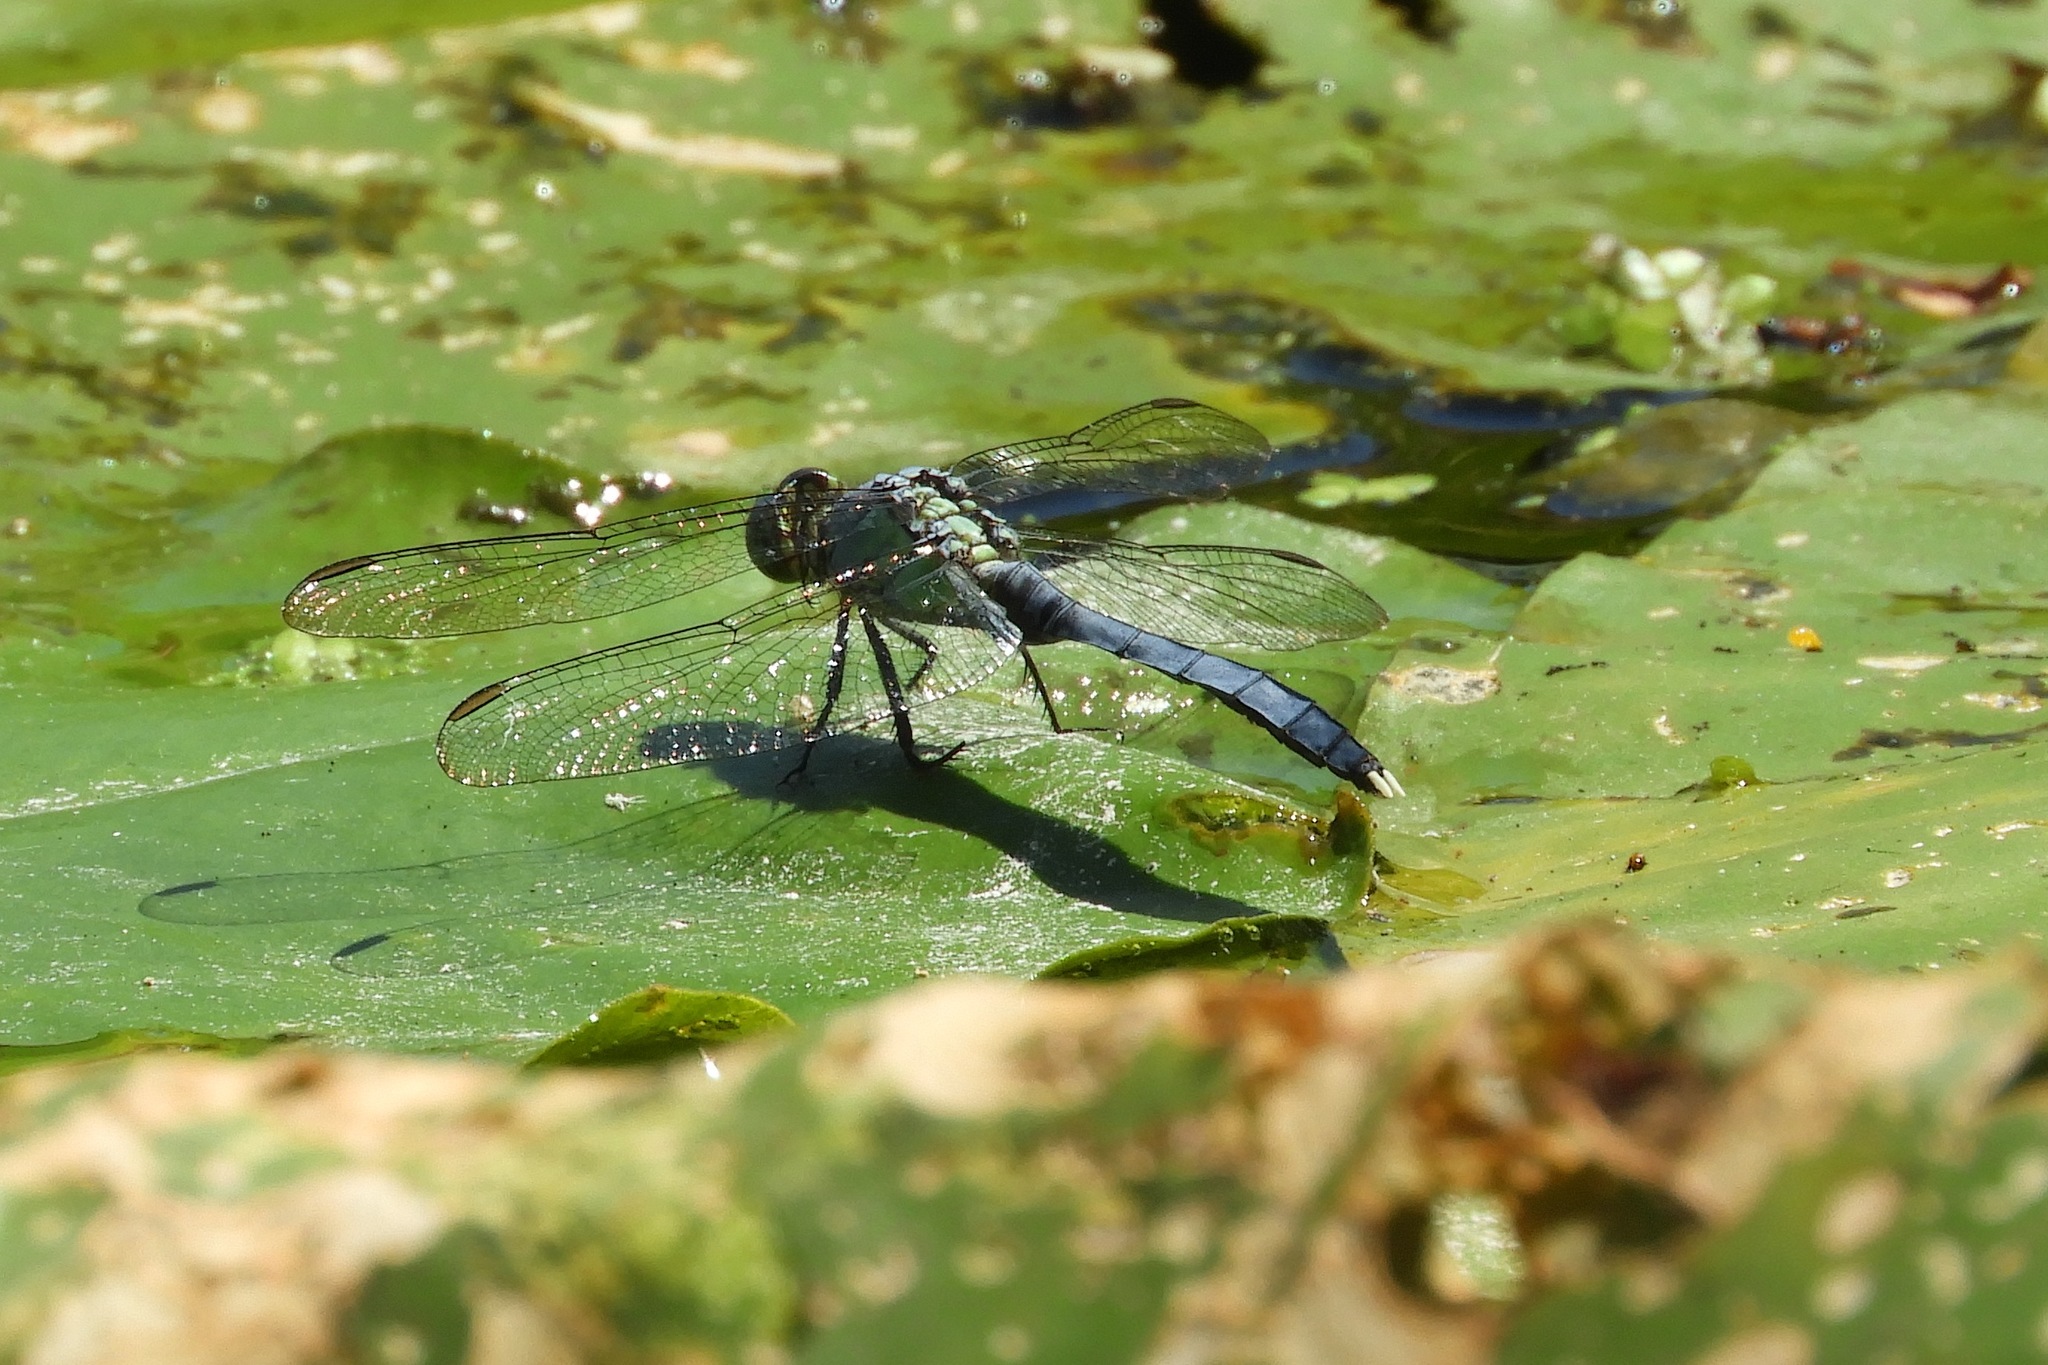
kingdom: Animalia
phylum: Arthropoda
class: Insecta
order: Odonata
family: Libellulidae
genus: Erythemis
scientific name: Erythemis simplicicollis
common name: Eastern pondhawk
